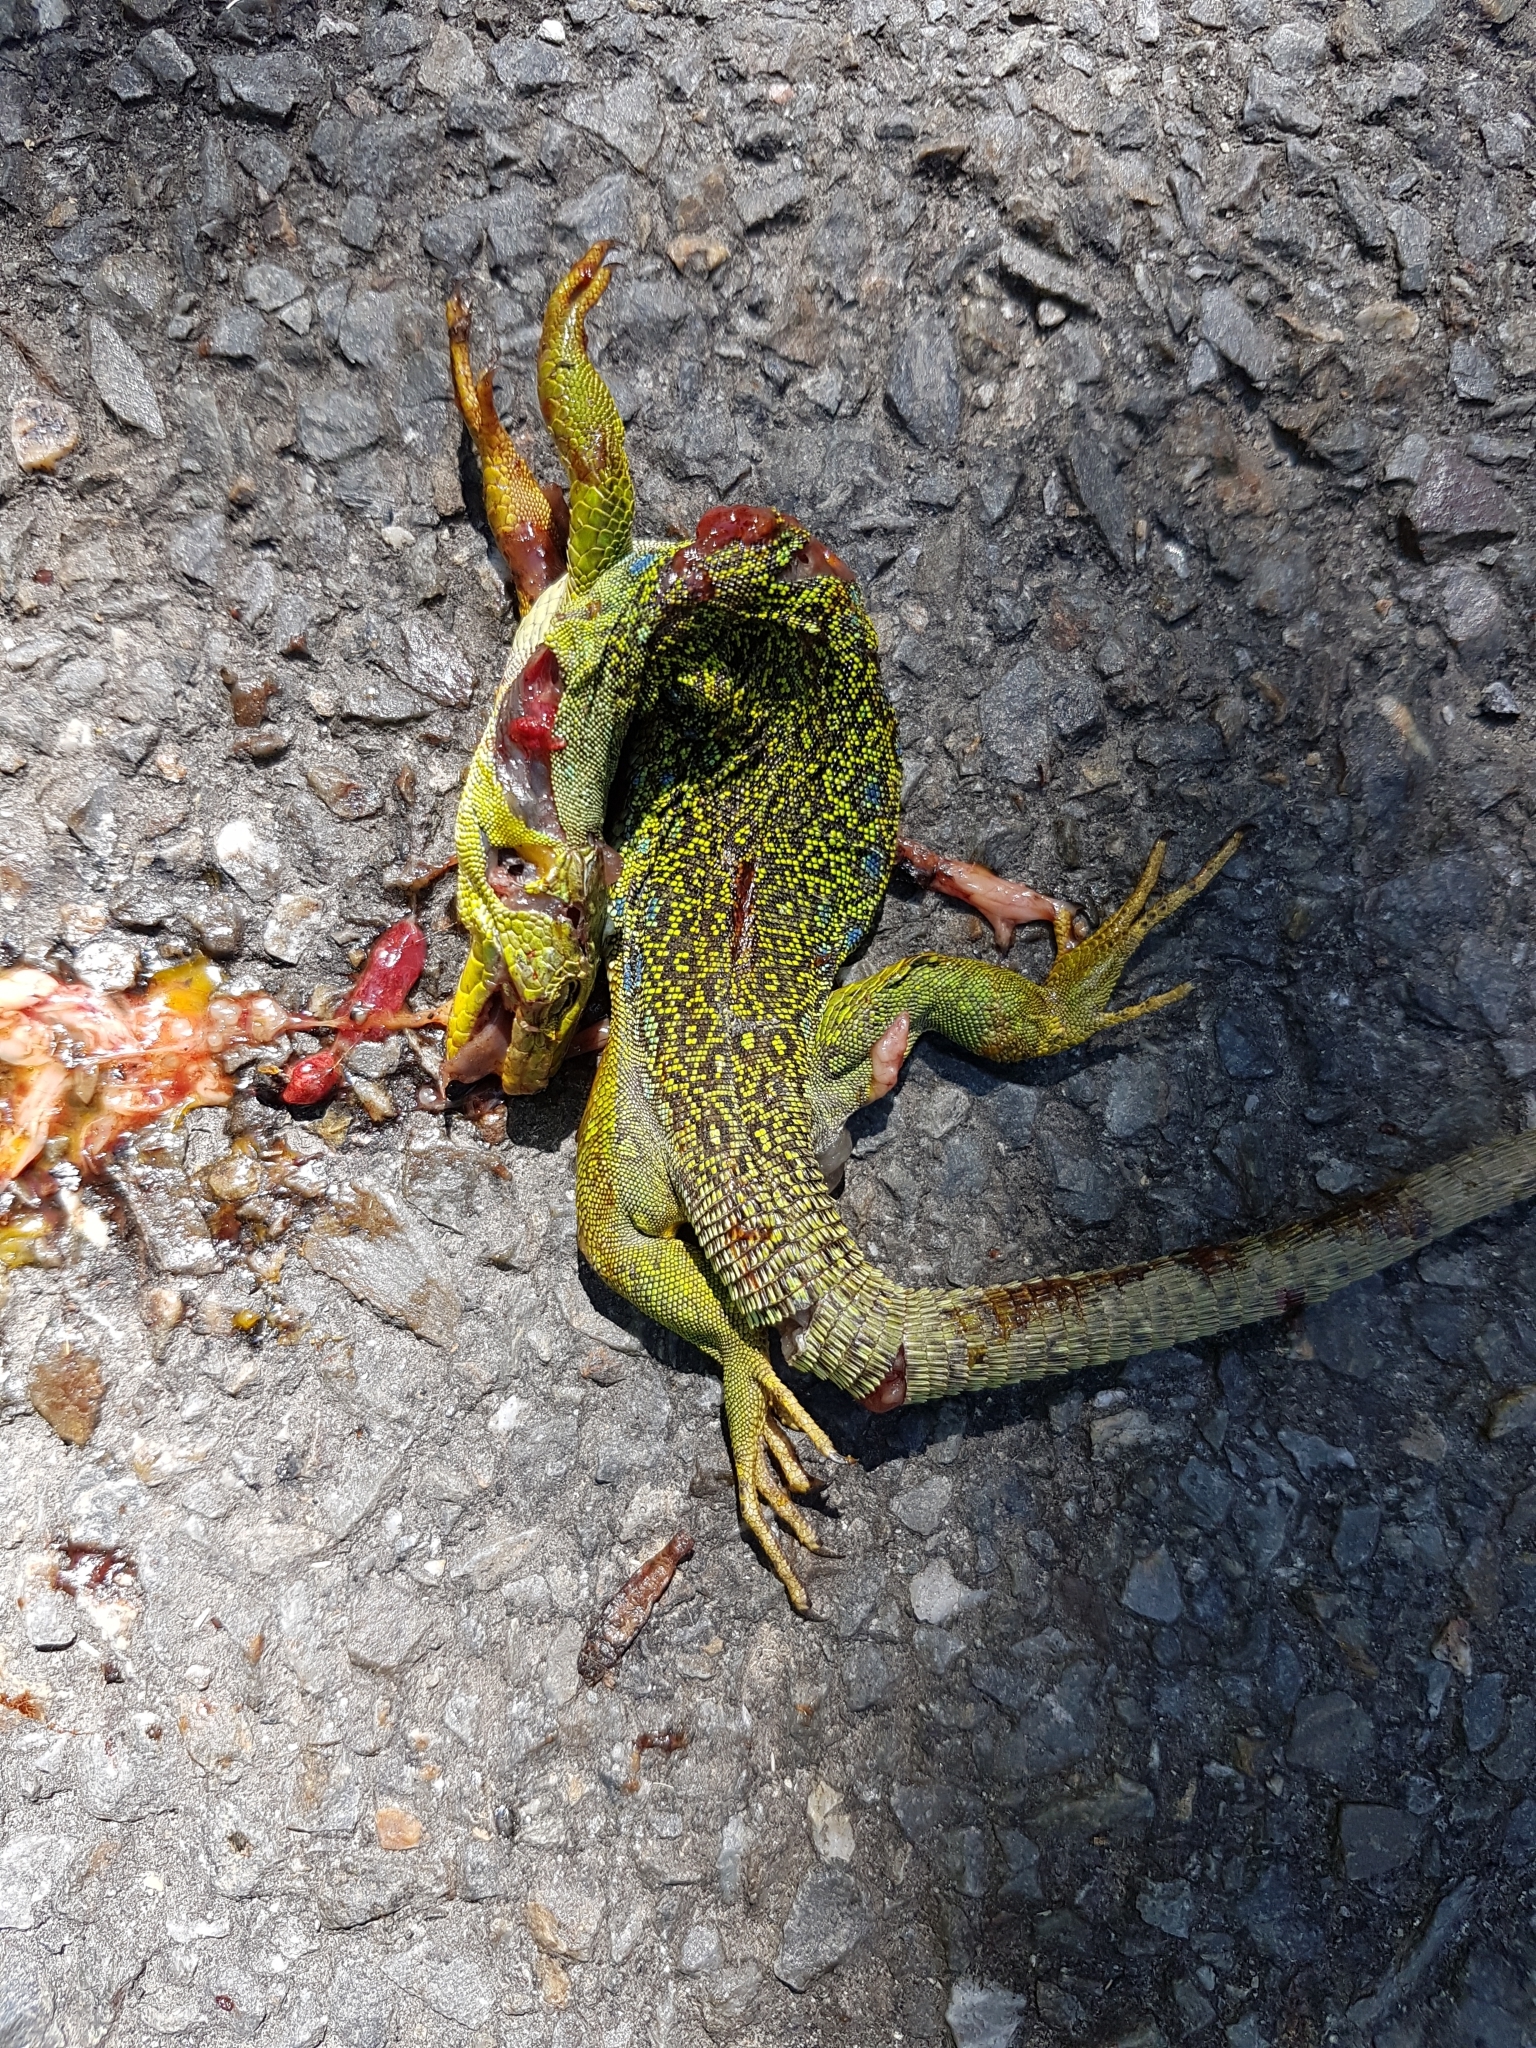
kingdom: Animalia
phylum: Chordata
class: Squamata
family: Lacertidae
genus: Timon
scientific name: Timon lepidus
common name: Ocellated lizard
